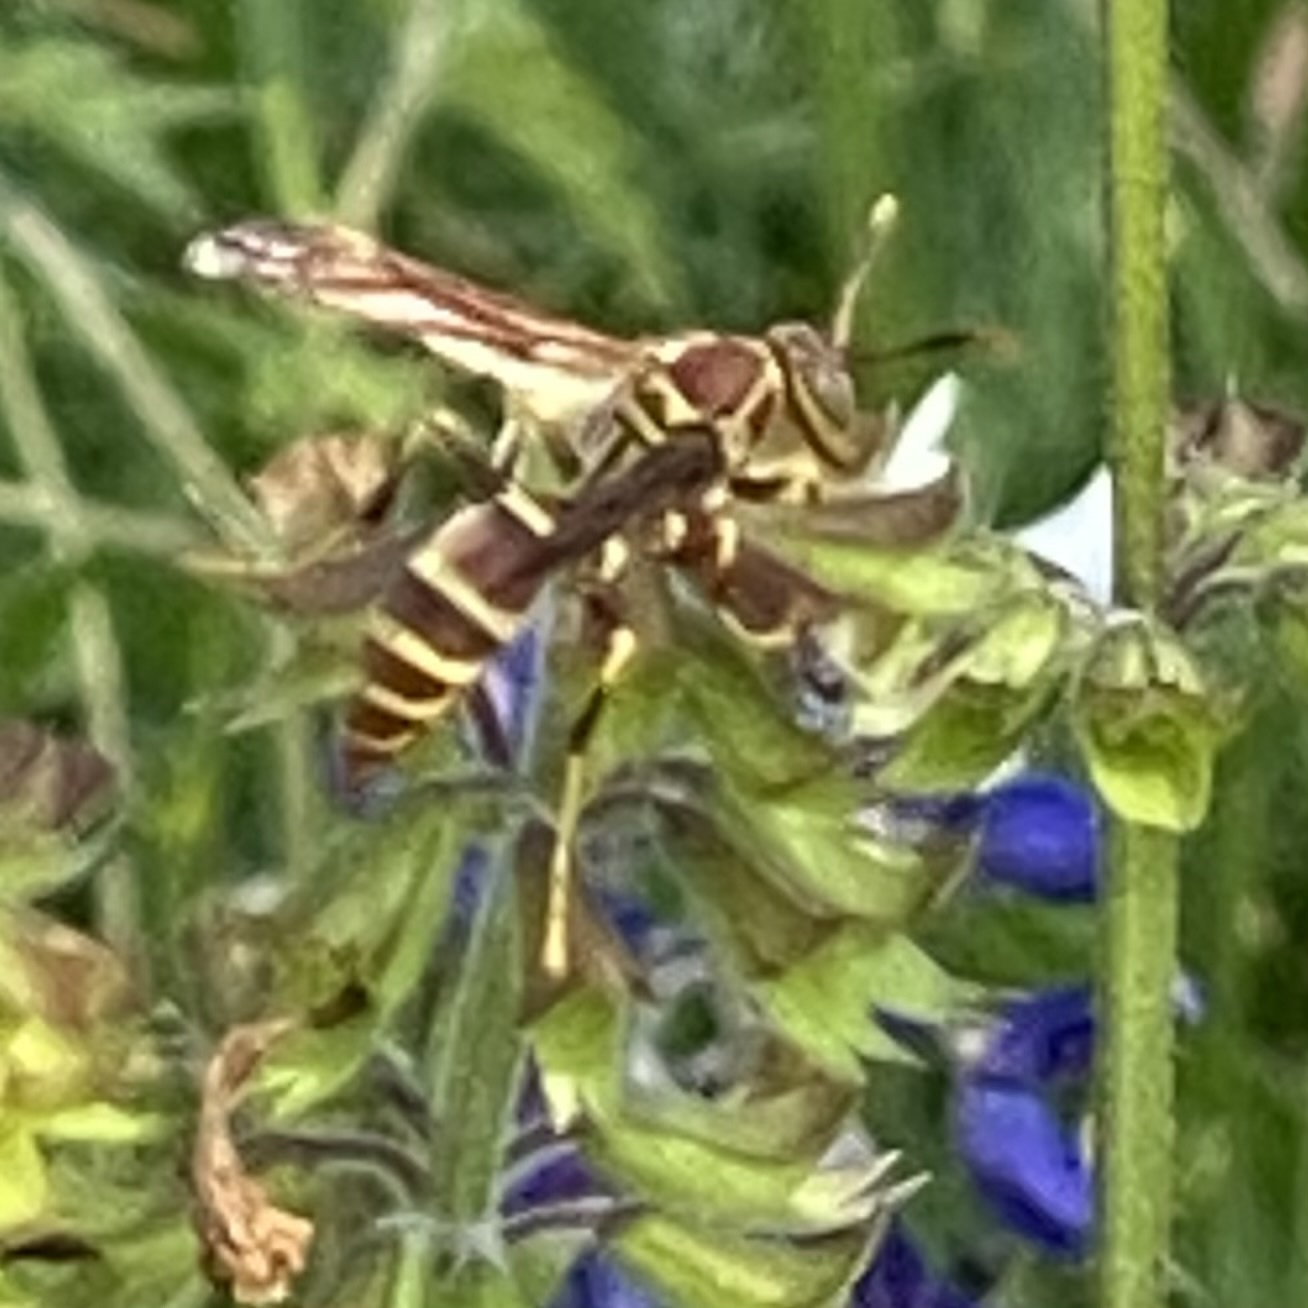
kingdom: Animalia
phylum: Arthropoda
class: Insecta
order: Hymenoptera
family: Eumenidae
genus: Polistes
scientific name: Polistes exclamans
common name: Paper wasp
